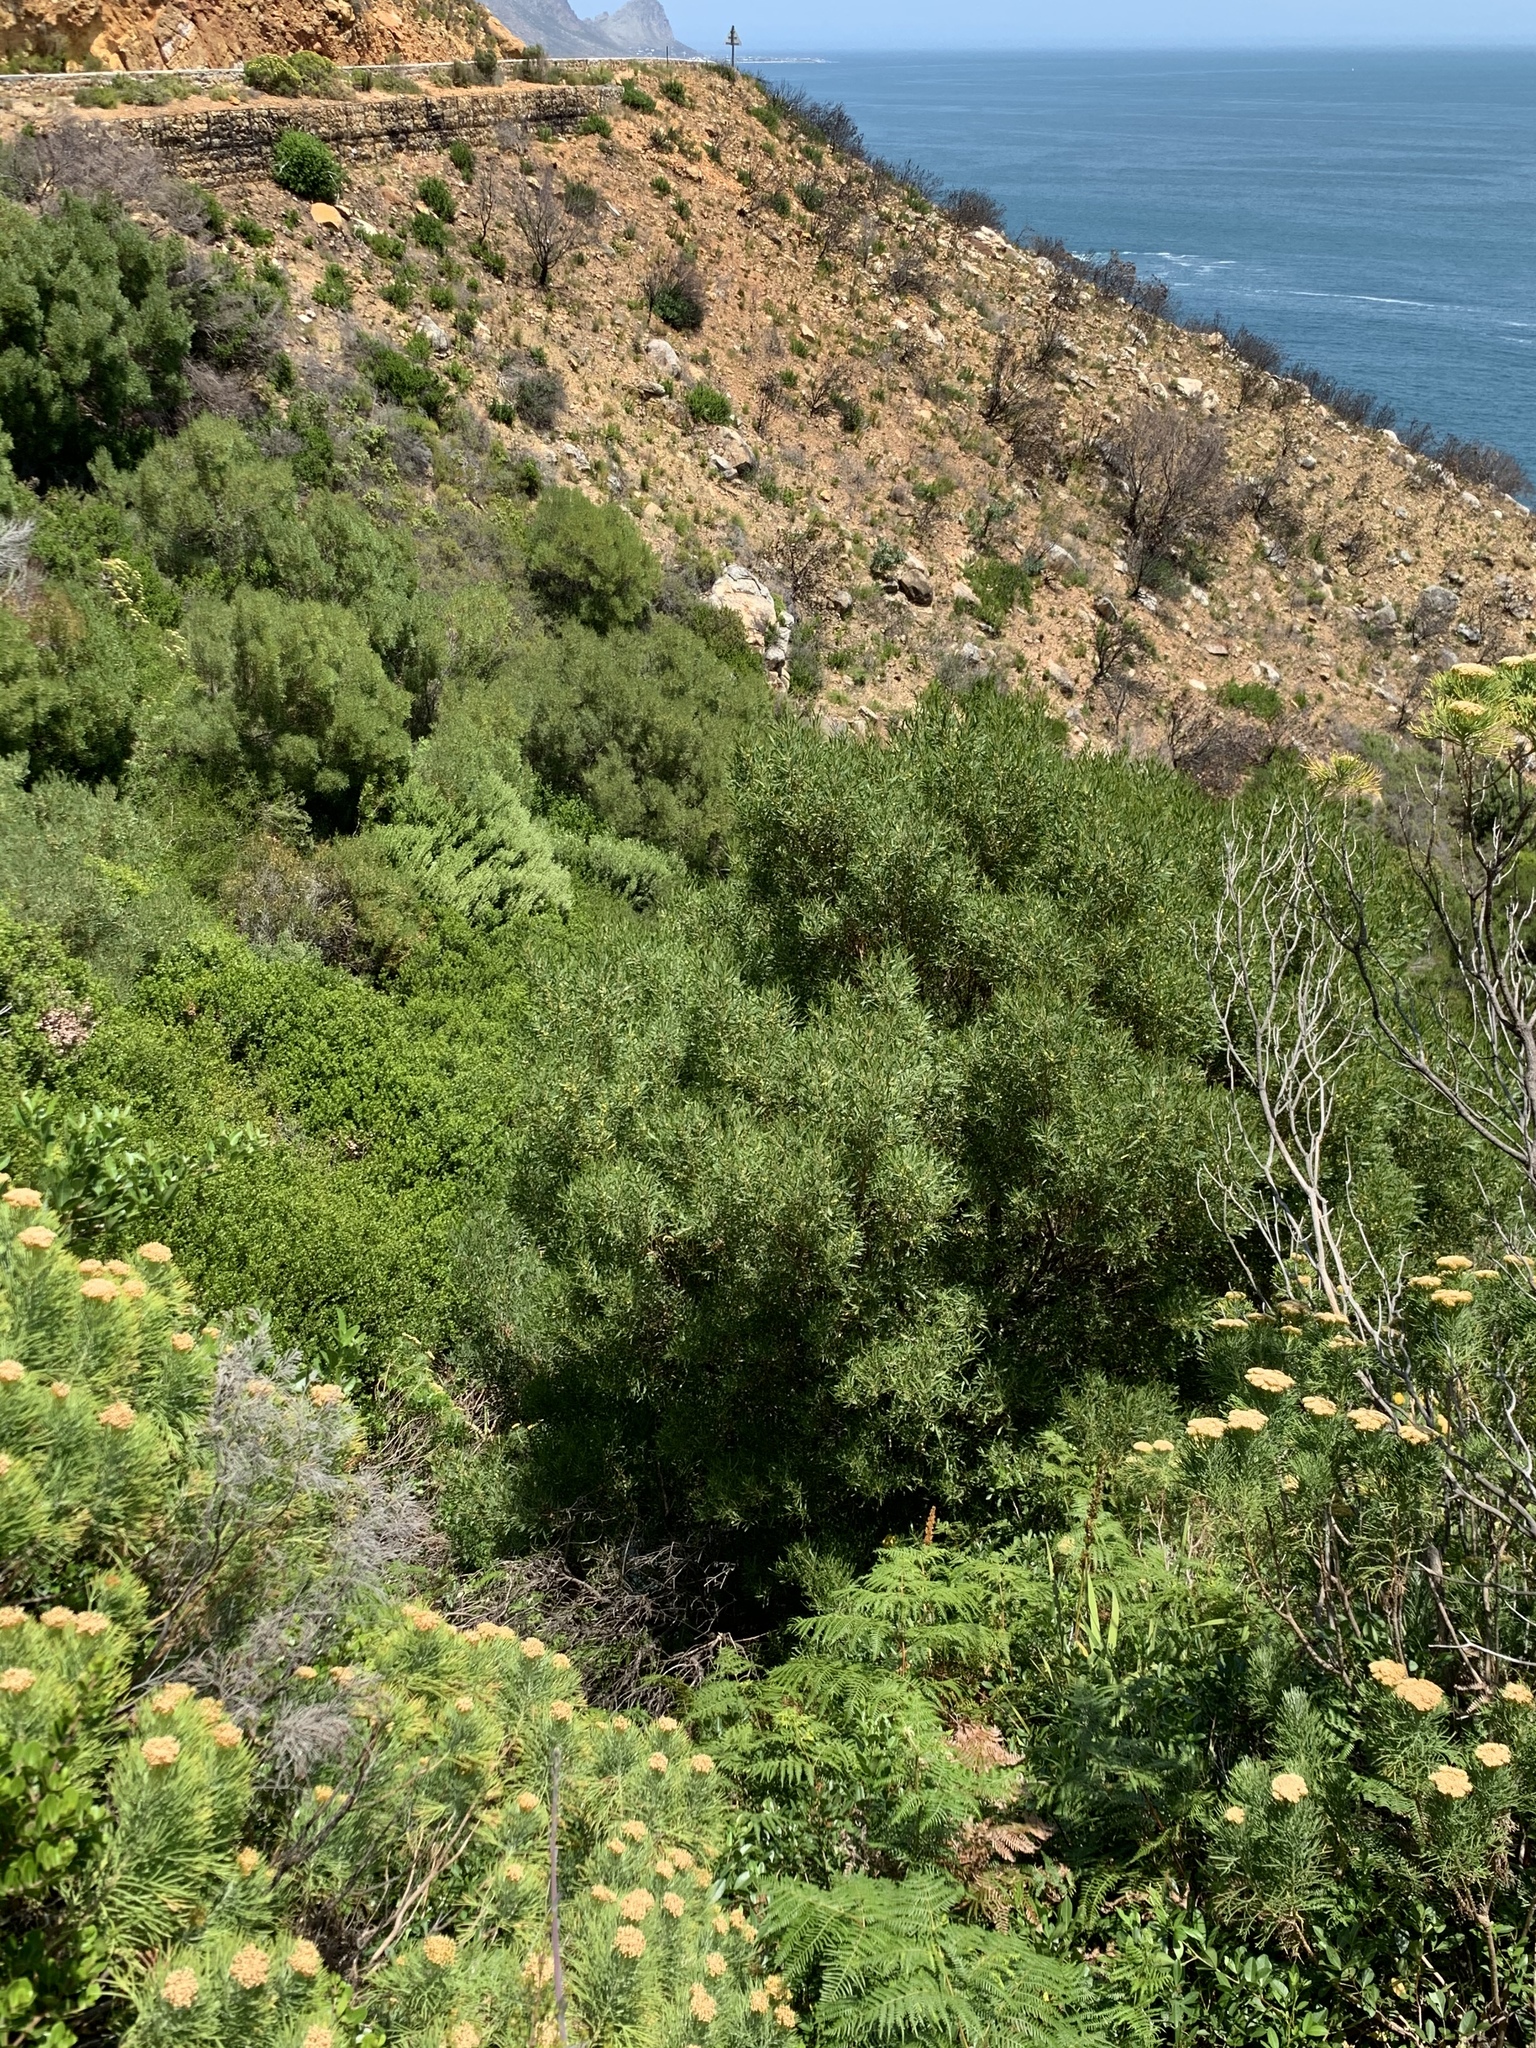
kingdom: Plantae
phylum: Tracheophyta
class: Magnoliopsida
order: Fabales
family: Fabaceae
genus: Acacia
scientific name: Acacia cyclops
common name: Coastal wattle
